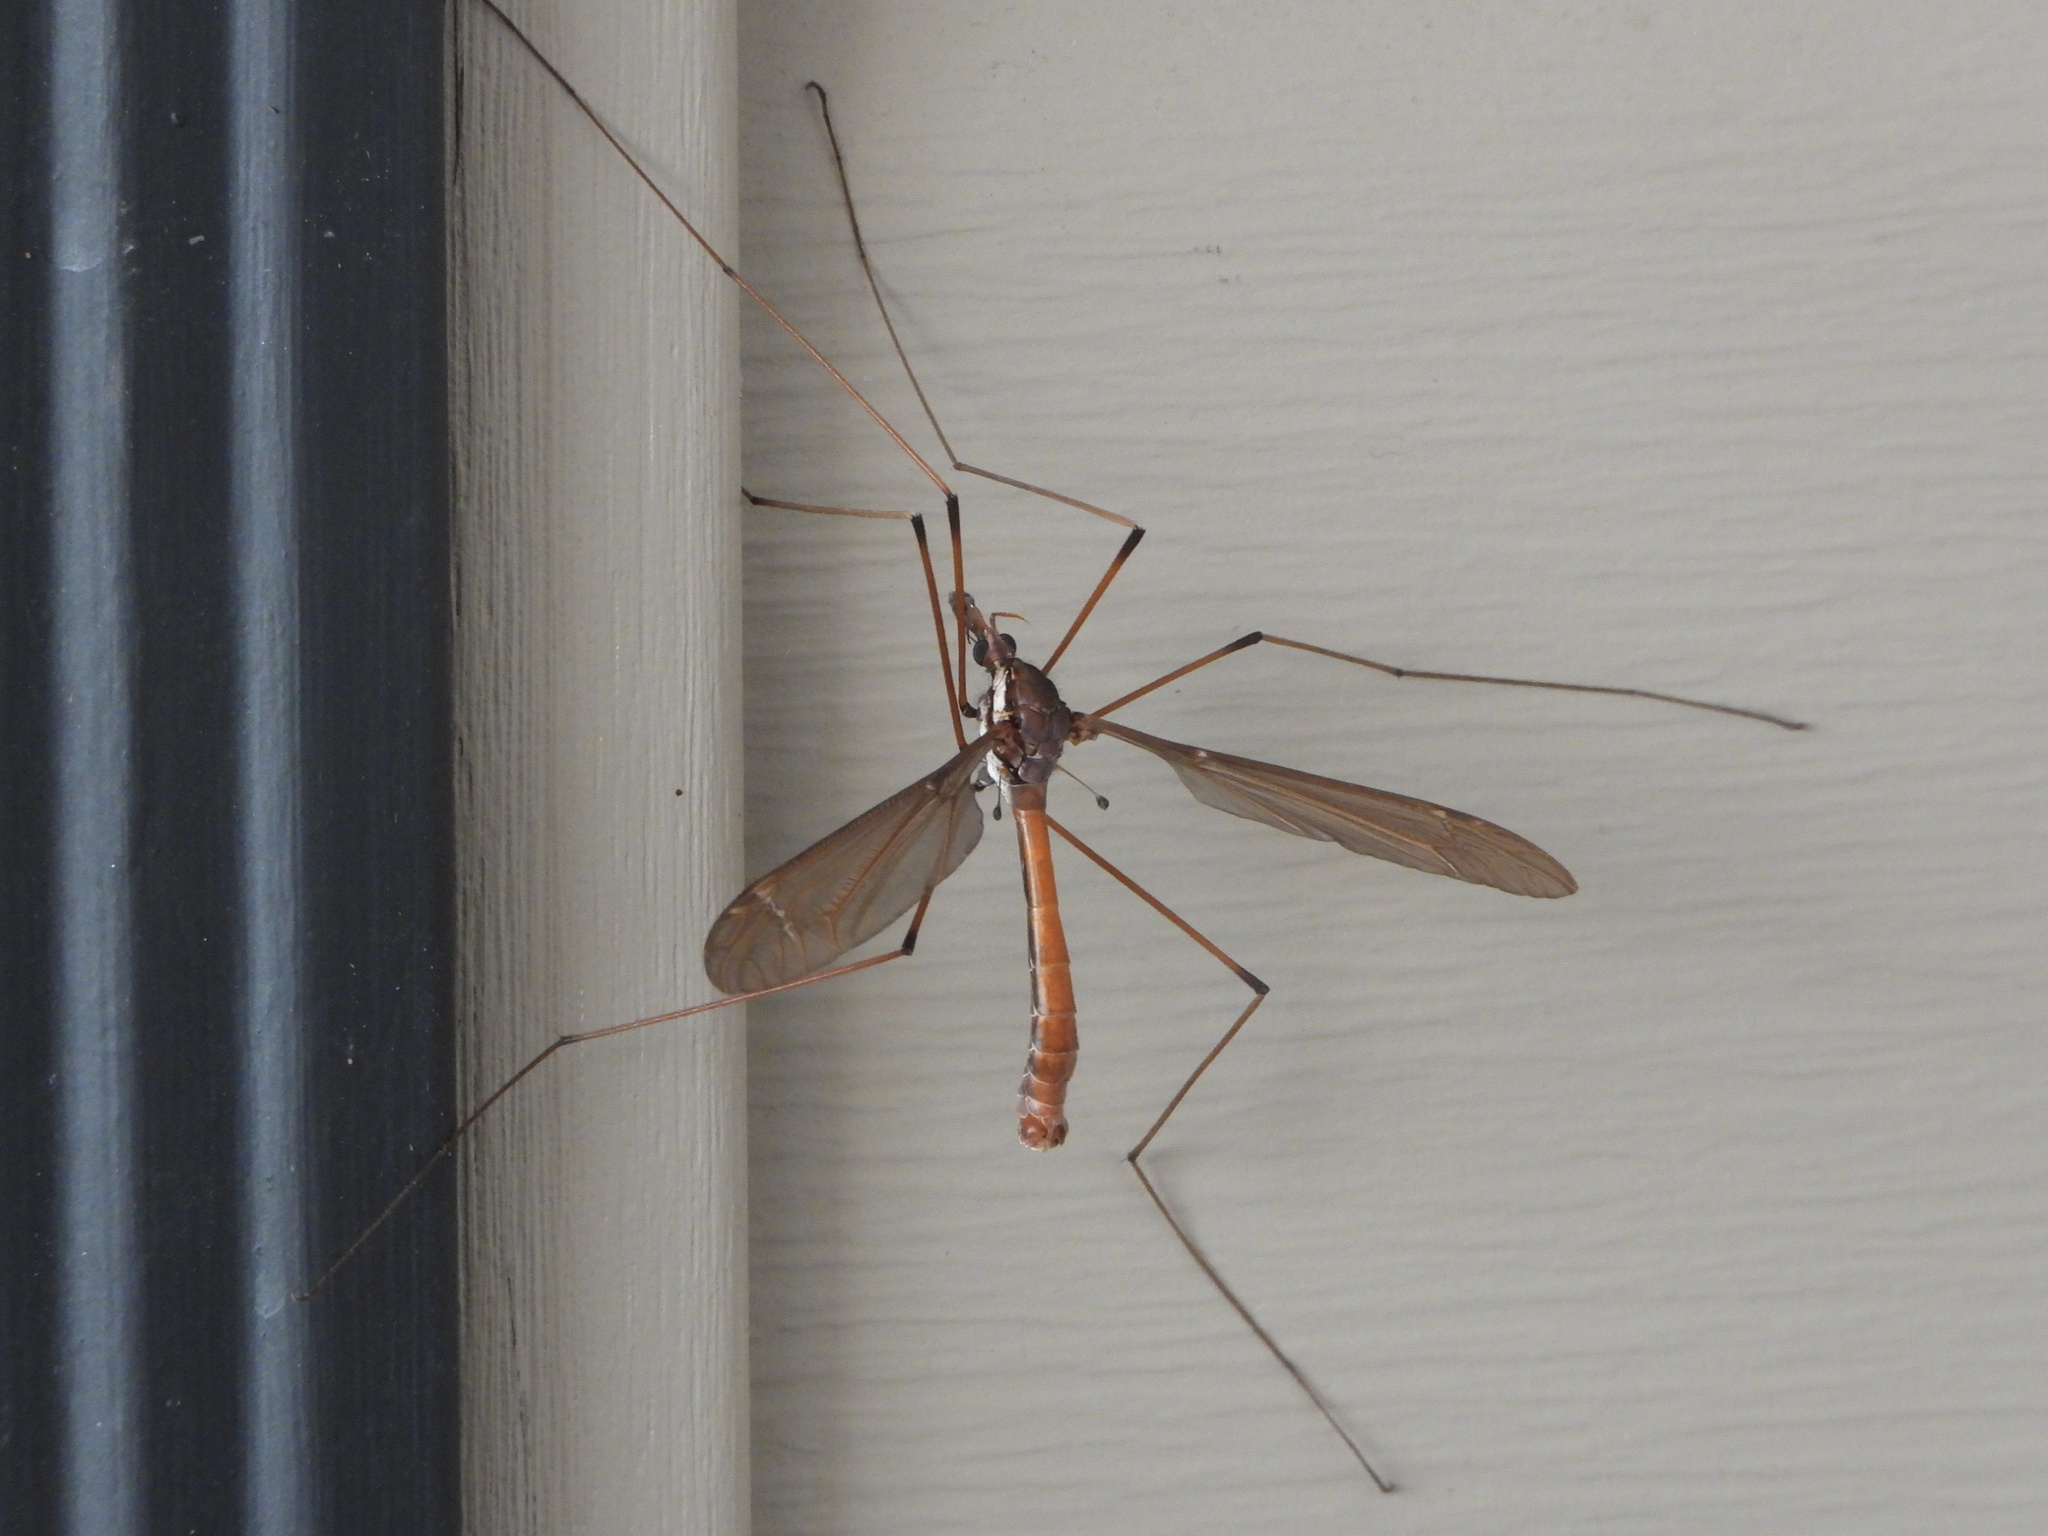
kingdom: Animalia
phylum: Arthropoda
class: Insecta
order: Diptera
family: Tipulidae
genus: Holorusia
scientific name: Holorusia hespera
